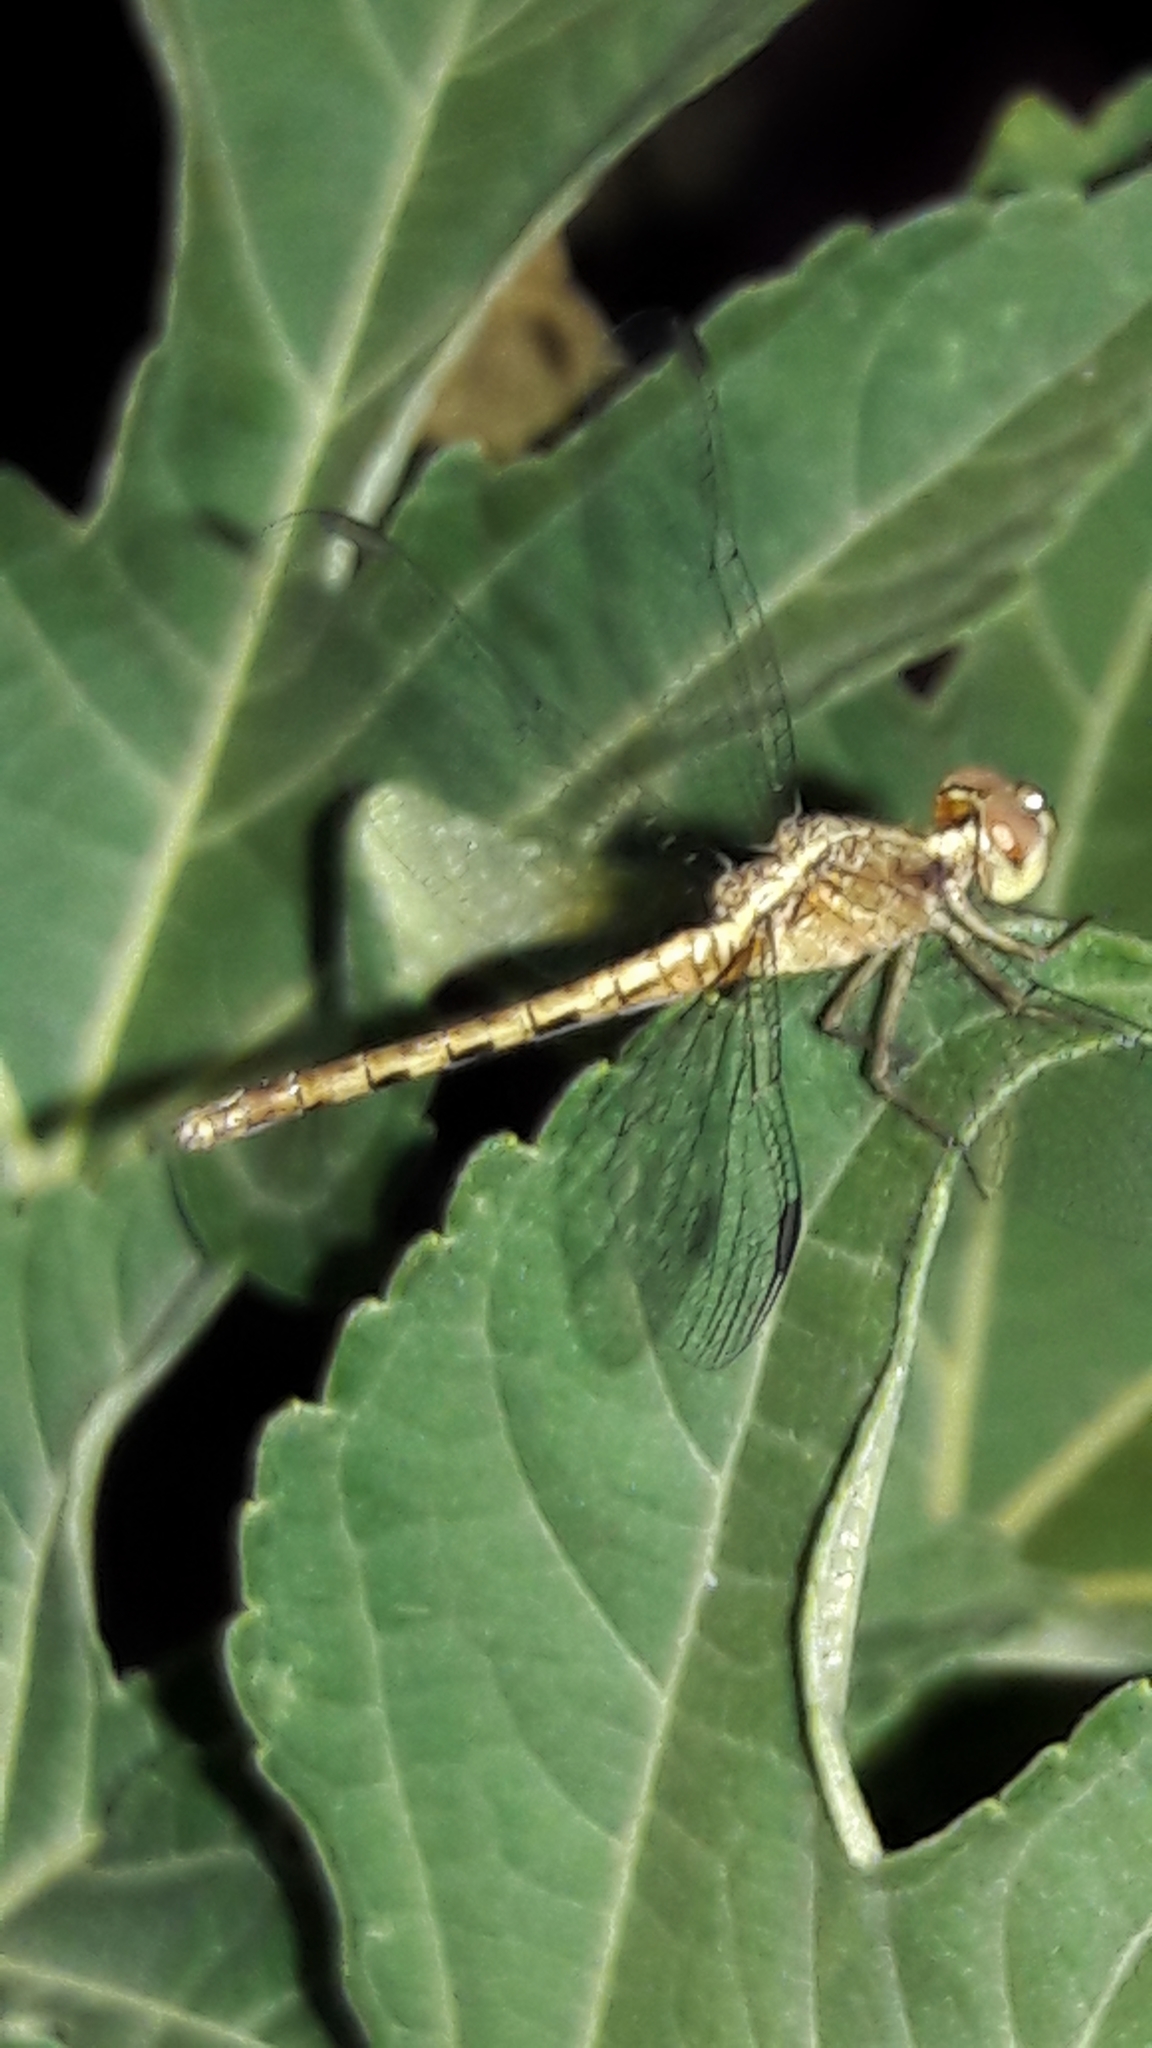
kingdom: Animalia
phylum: Arthropoda
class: Insecta
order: Odonata
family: Libellulidae
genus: Erythrodiplax
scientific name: Erythrodiplax umbrata
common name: Band-winged dragonlet
